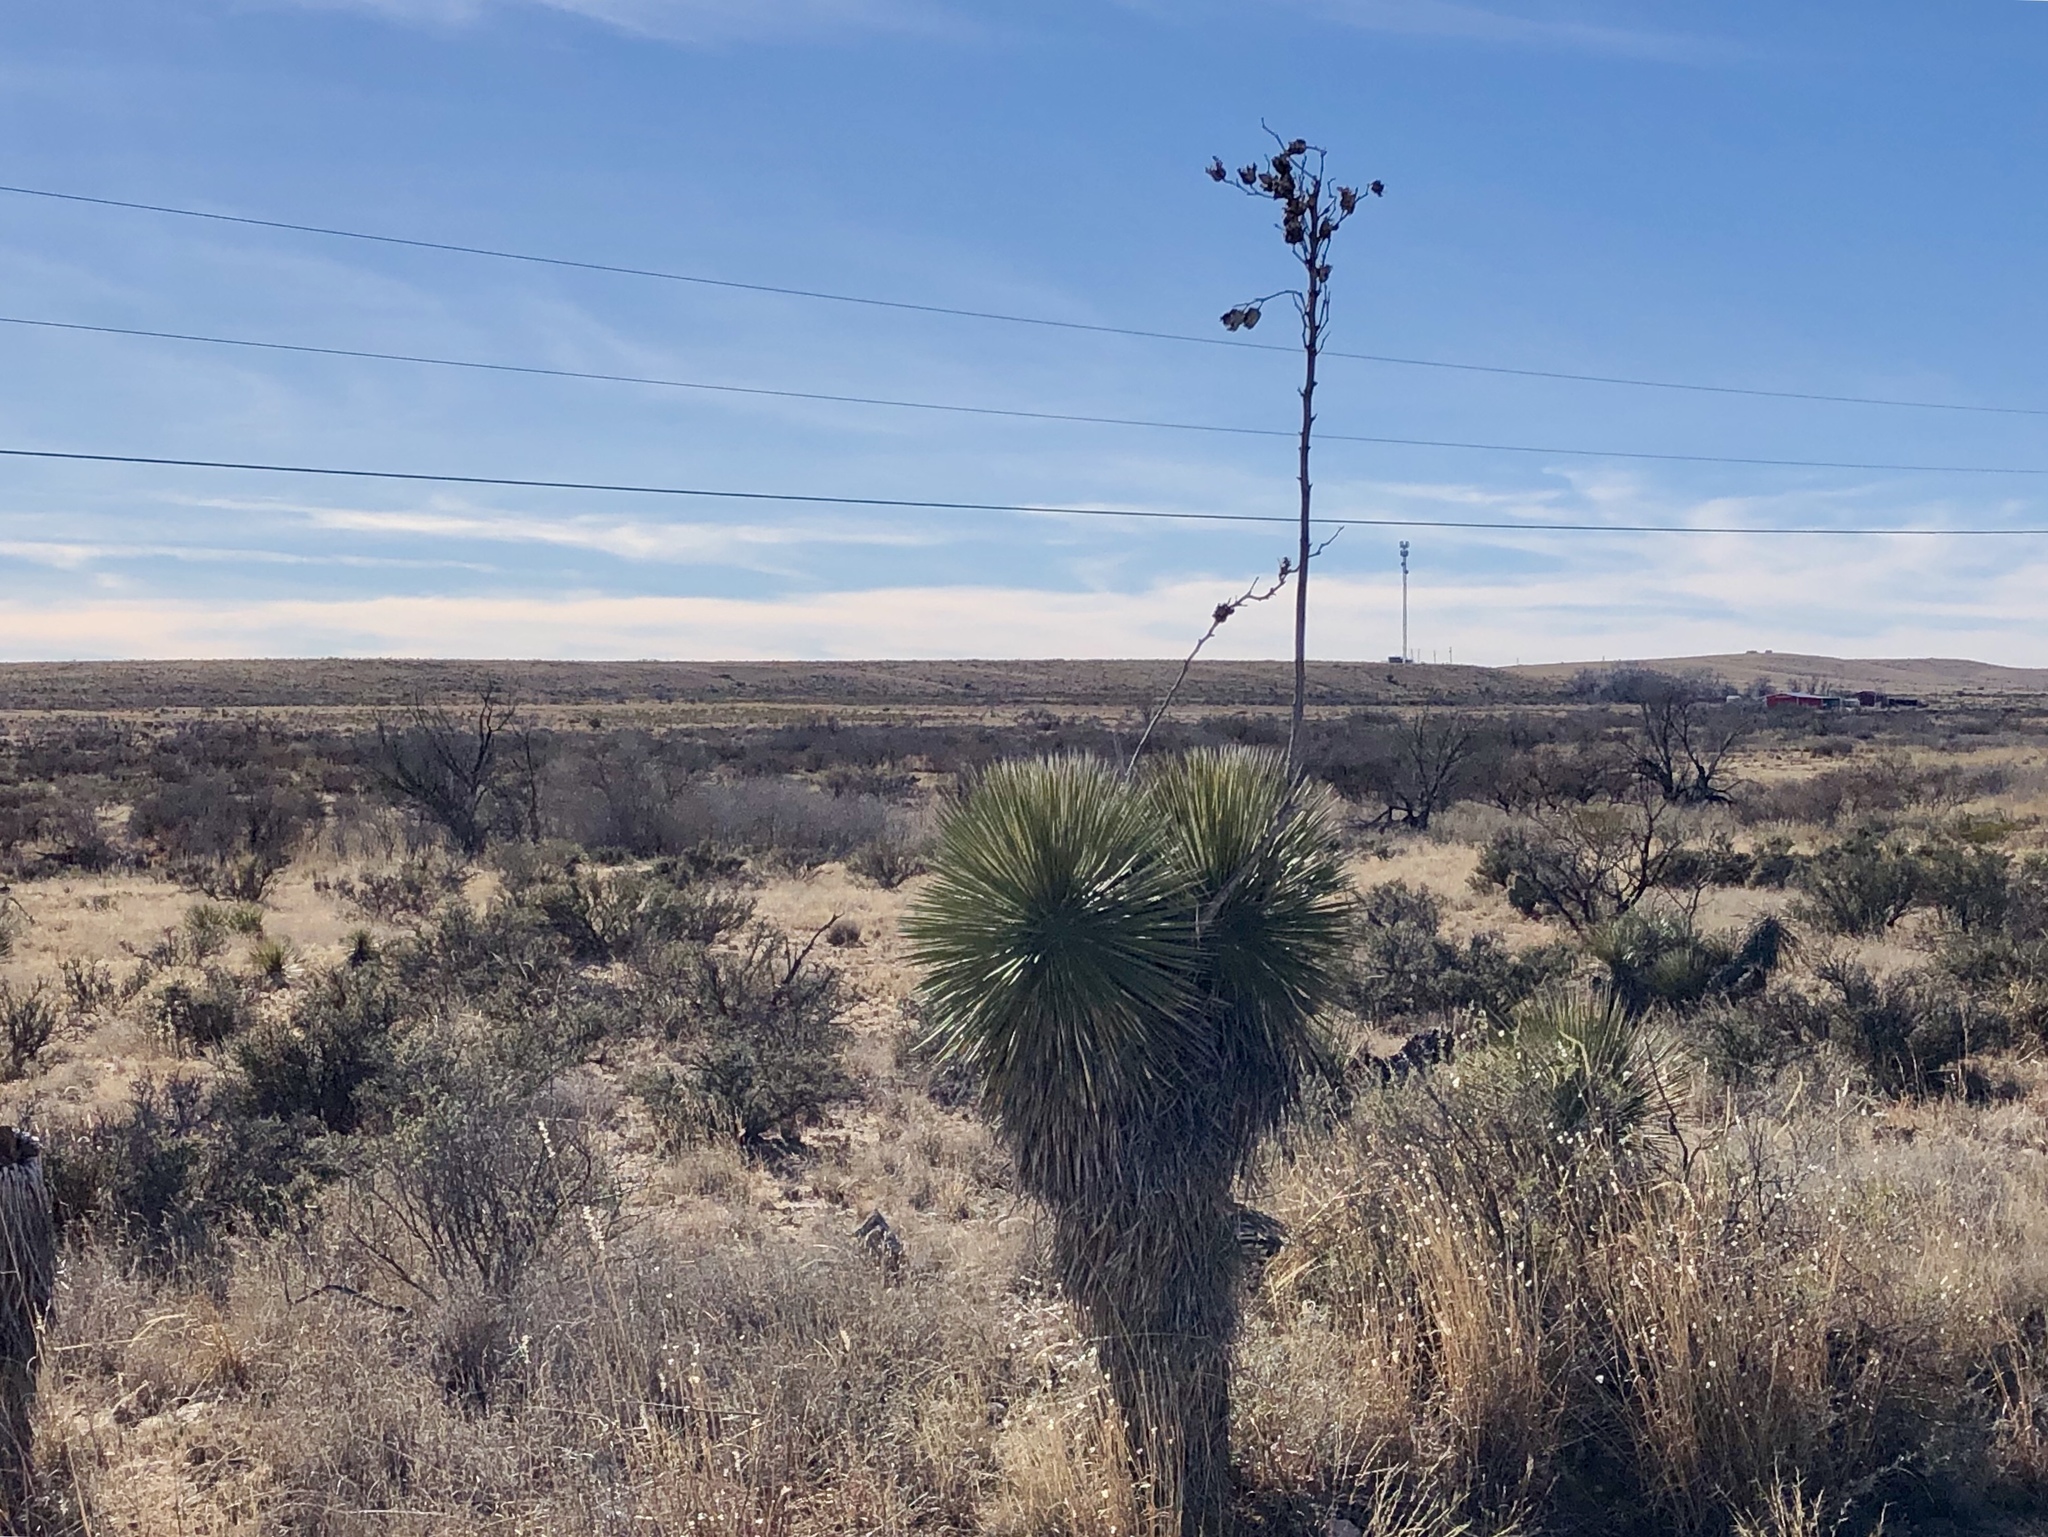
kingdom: Plantae
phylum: Tracheophyta
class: Liliopsida
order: Asparagales
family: Asparagaceae
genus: Yucca
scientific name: Yucca elata
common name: Palmella
